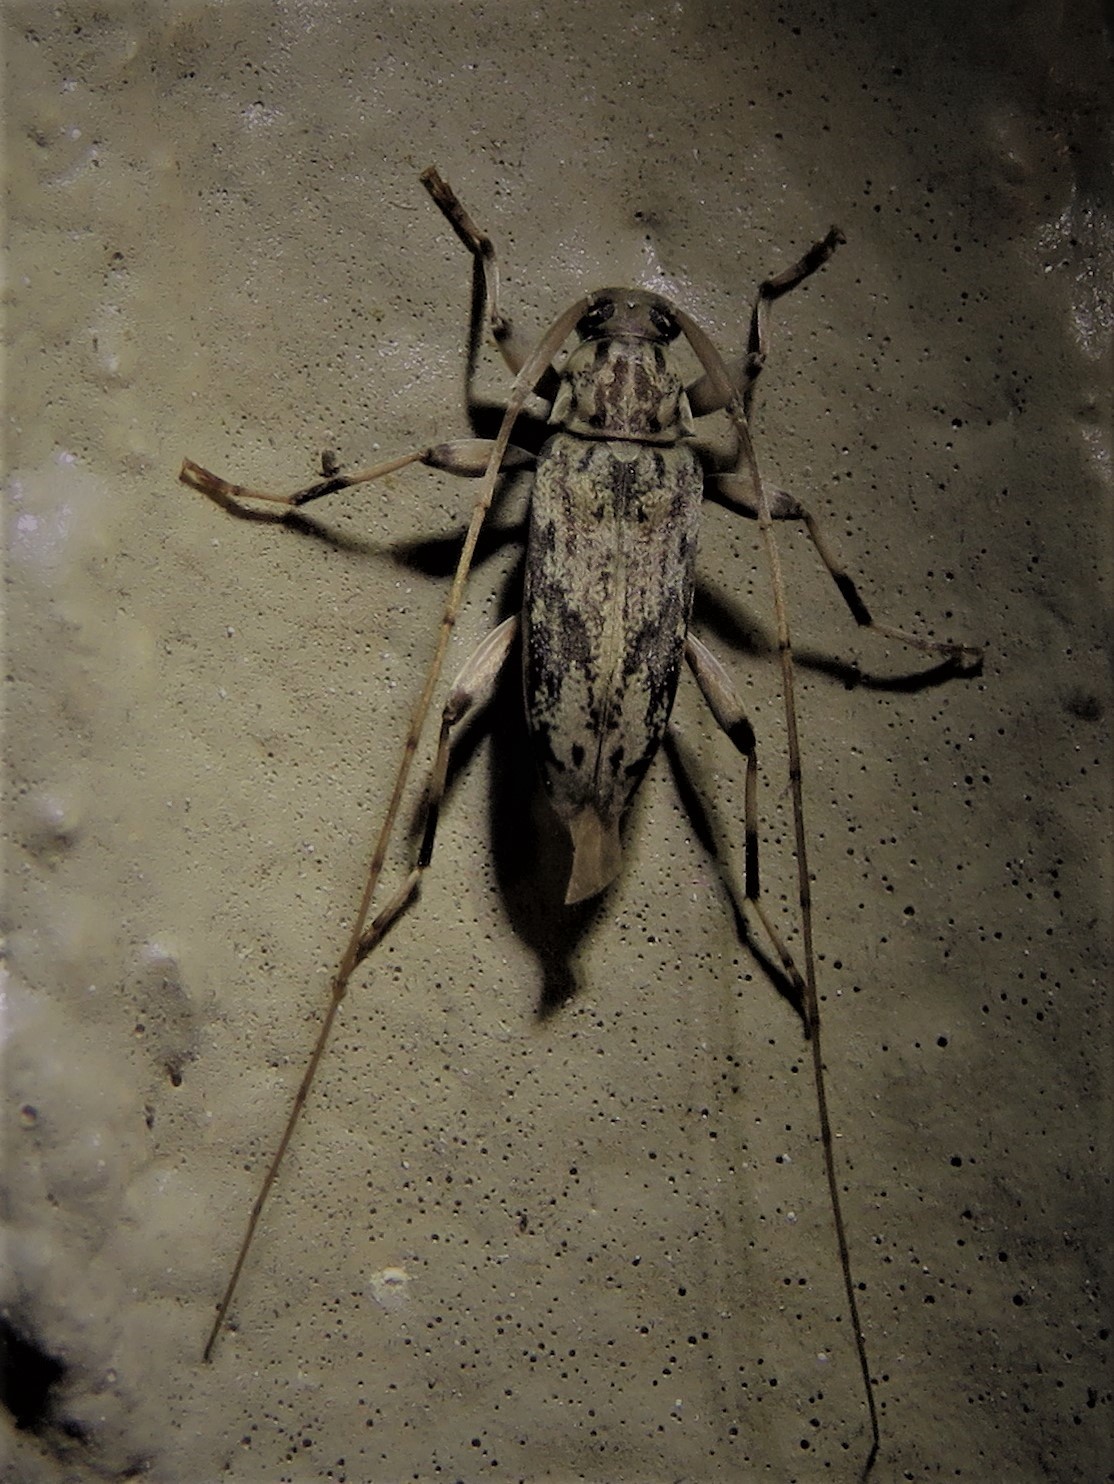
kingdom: Animalia
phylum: Arthropoda
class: Insecta
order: Coleoptera
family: Cerambycidae
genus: Lepturges
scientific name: Lepturges angulatus
